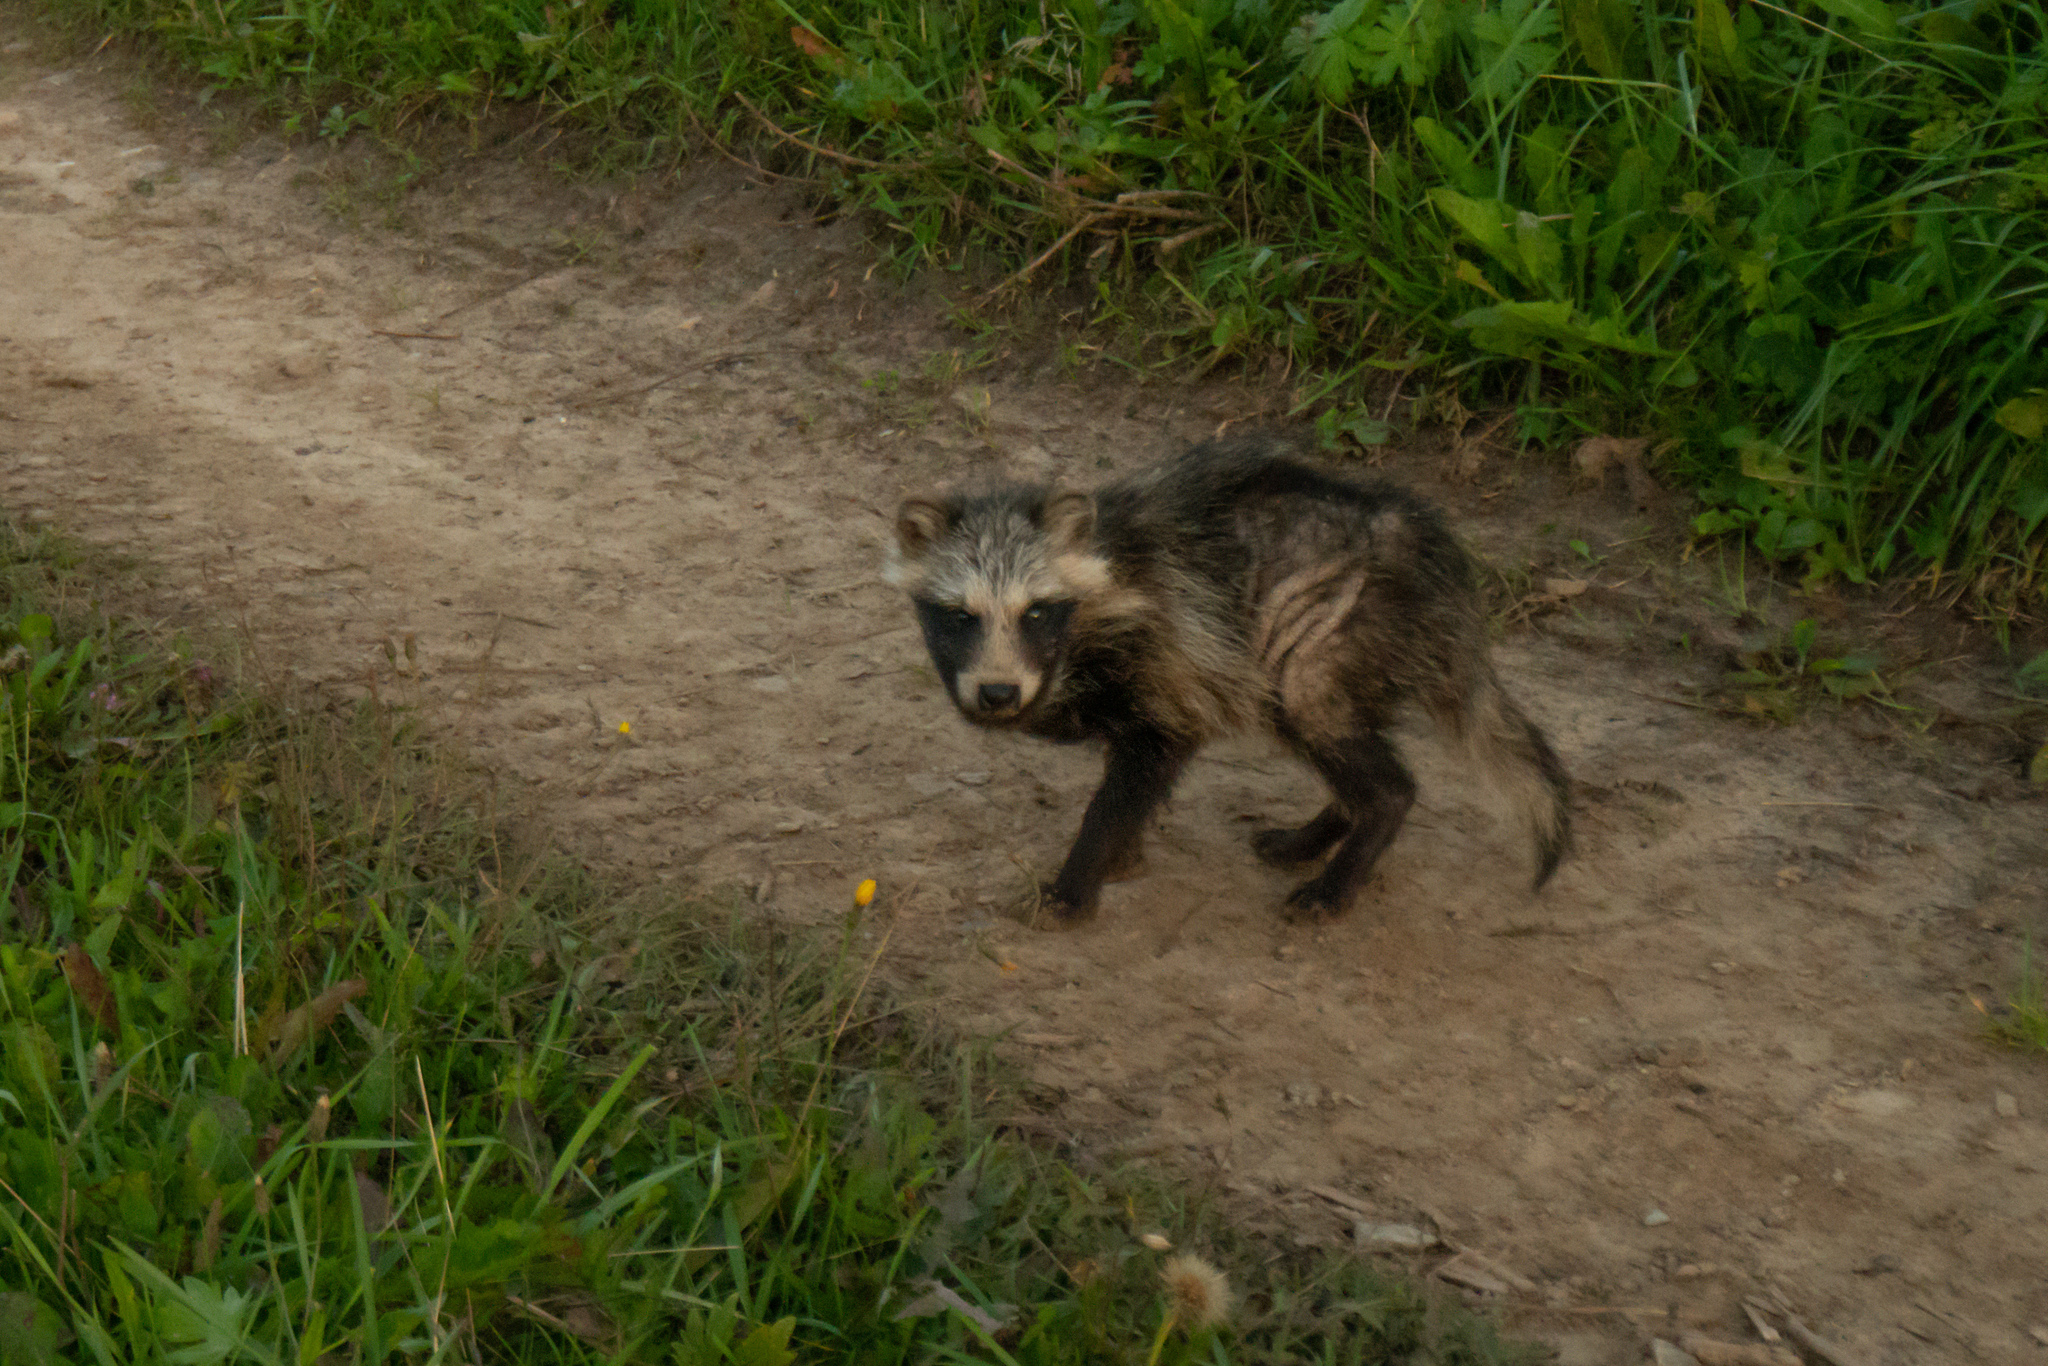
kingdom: Animalia
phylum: Chordata
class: Mammalia
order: Carnivora
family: Canidae
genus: Nyctereutes
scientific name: Nyctereutes procyonoides
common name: Raccoon dog
